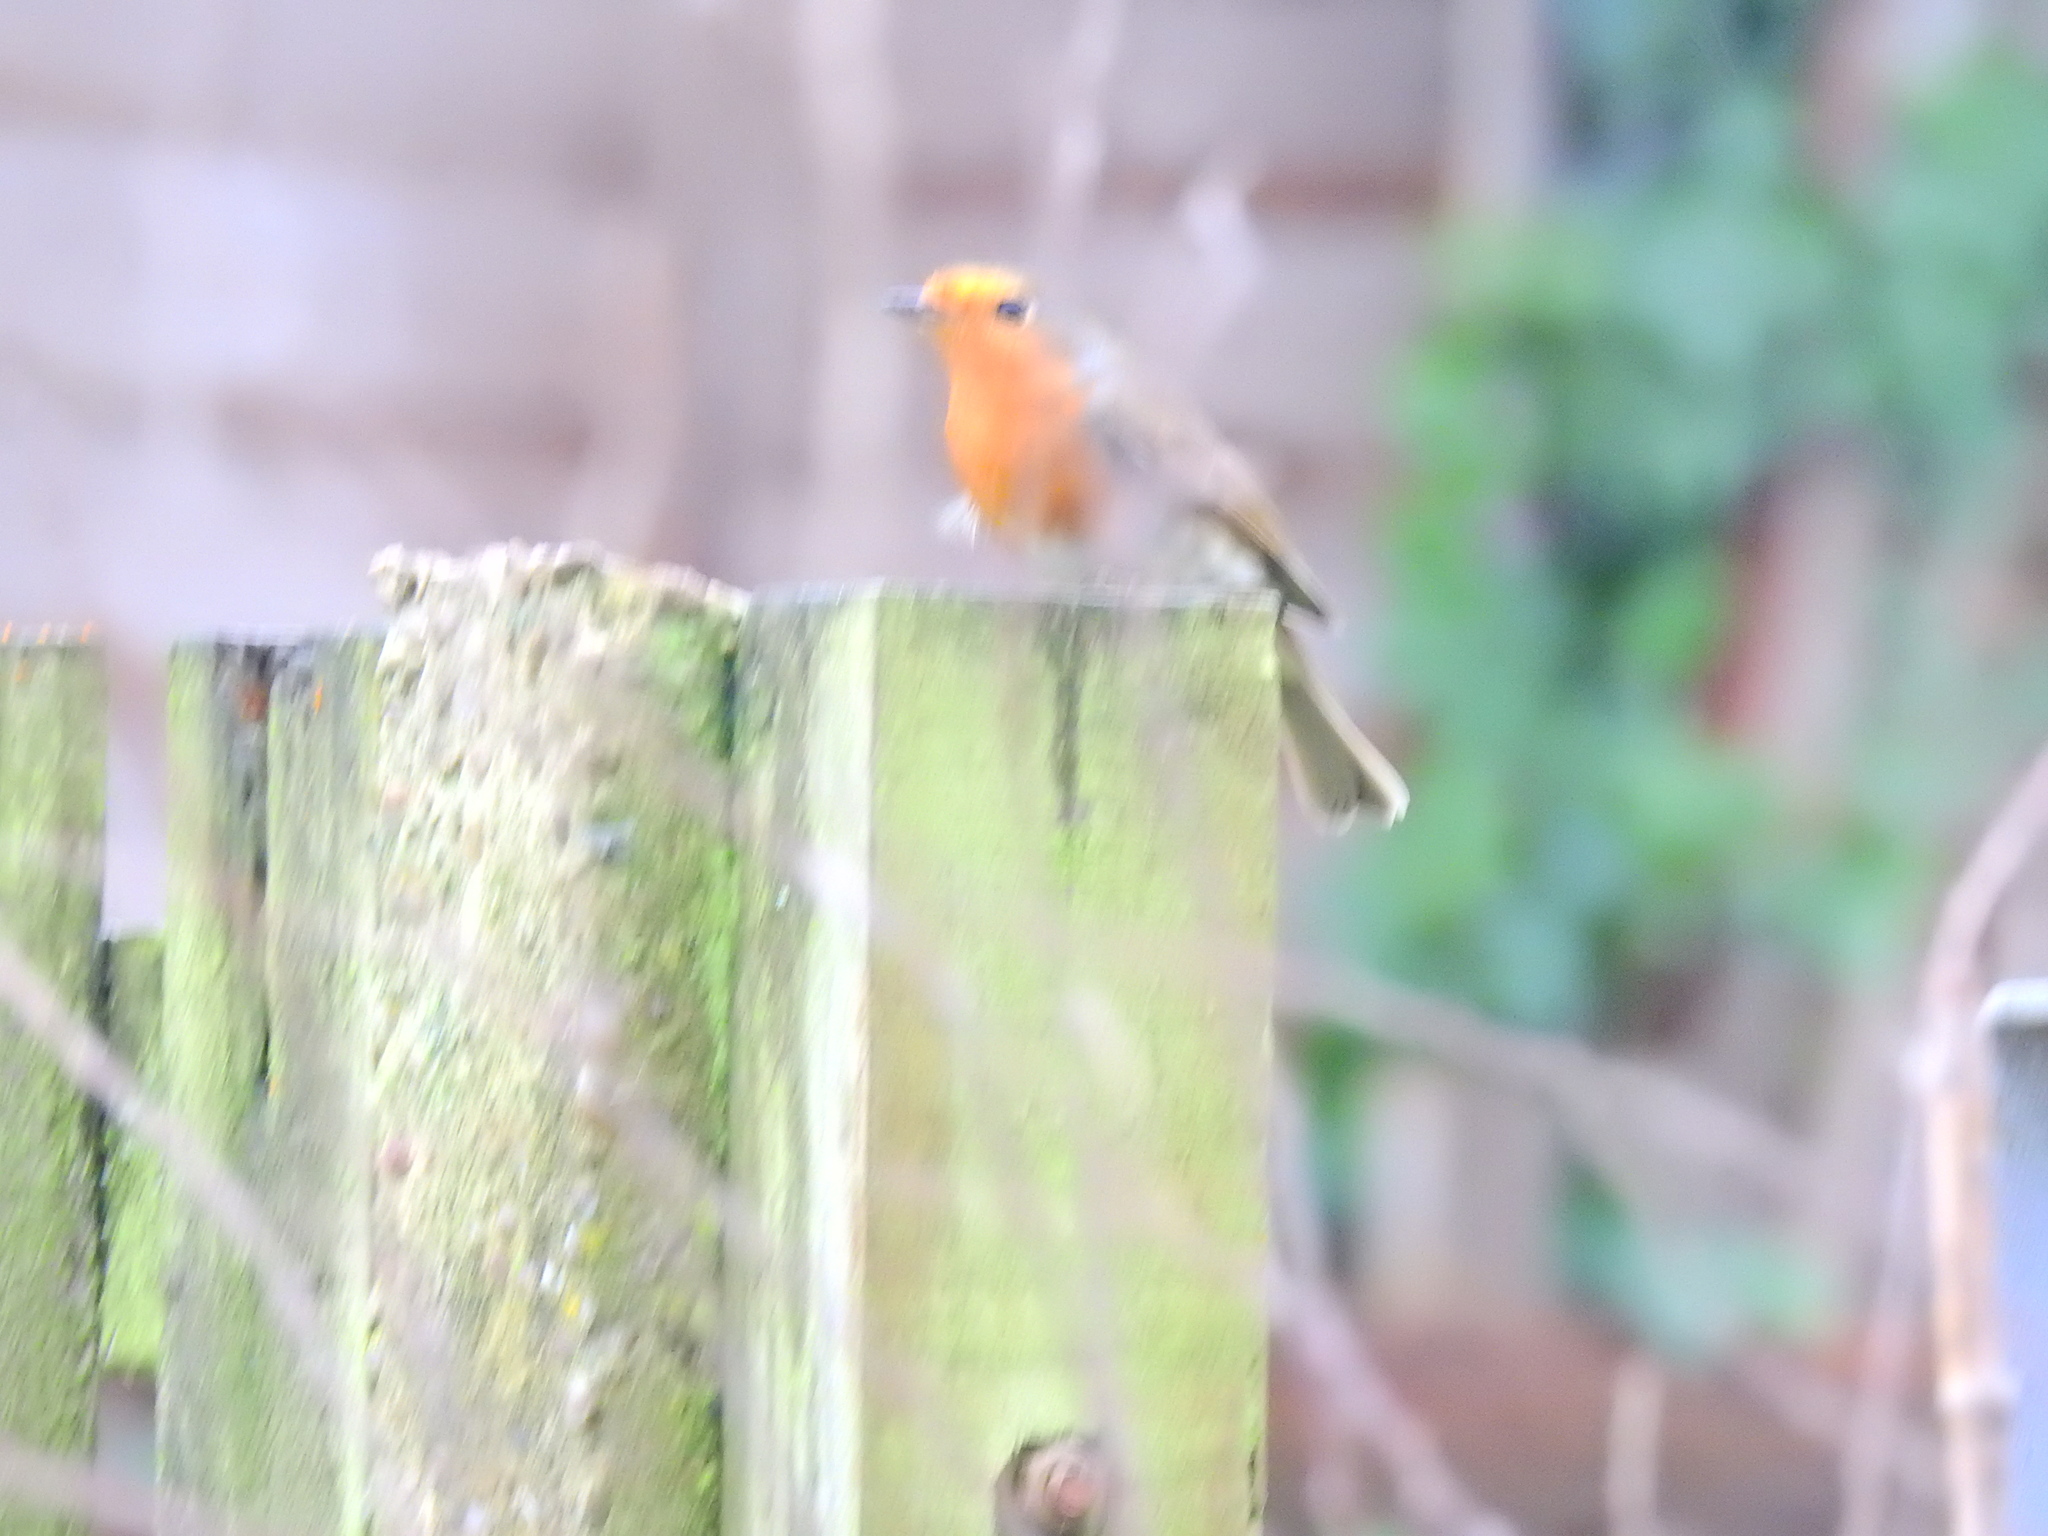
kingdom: Animalia
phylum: Chordata
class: Aves
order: Passeriformes
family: Muscicapidae
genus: Erithacus
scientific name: Erithacus rubecula
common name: European robin
